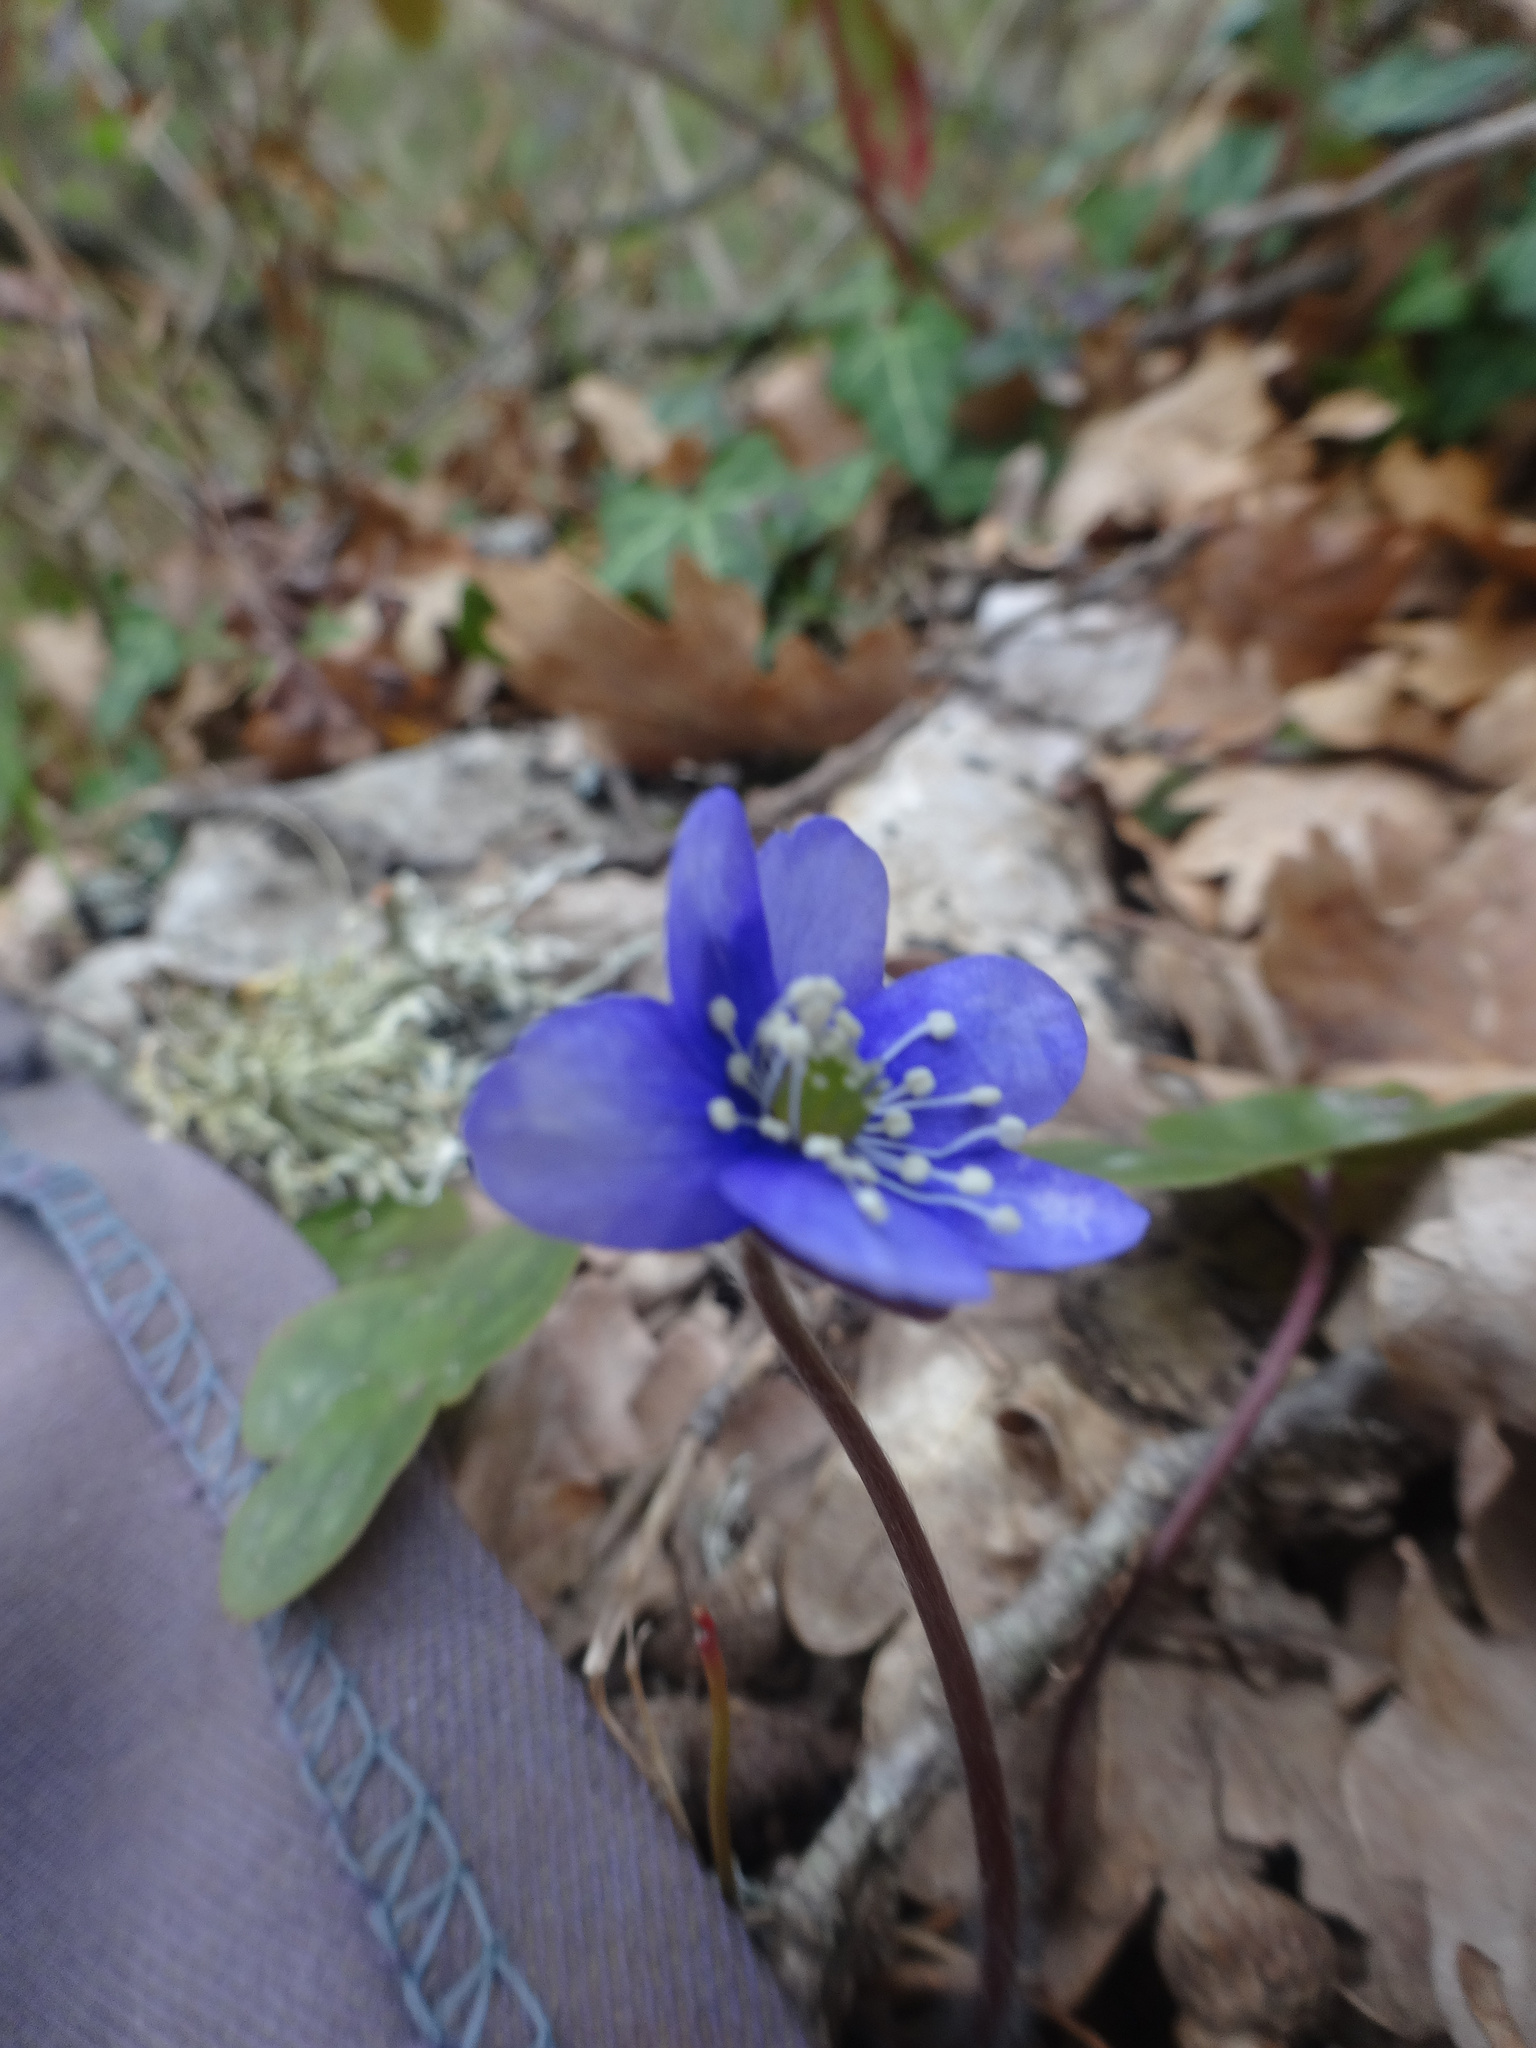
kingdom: Plantae
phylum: Tracheophyta
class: Magnoliopsida
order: Ranunculales
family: Ranunculaceae
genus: Hepatica
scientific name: Hepatica nobilis
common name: Liverleaf
